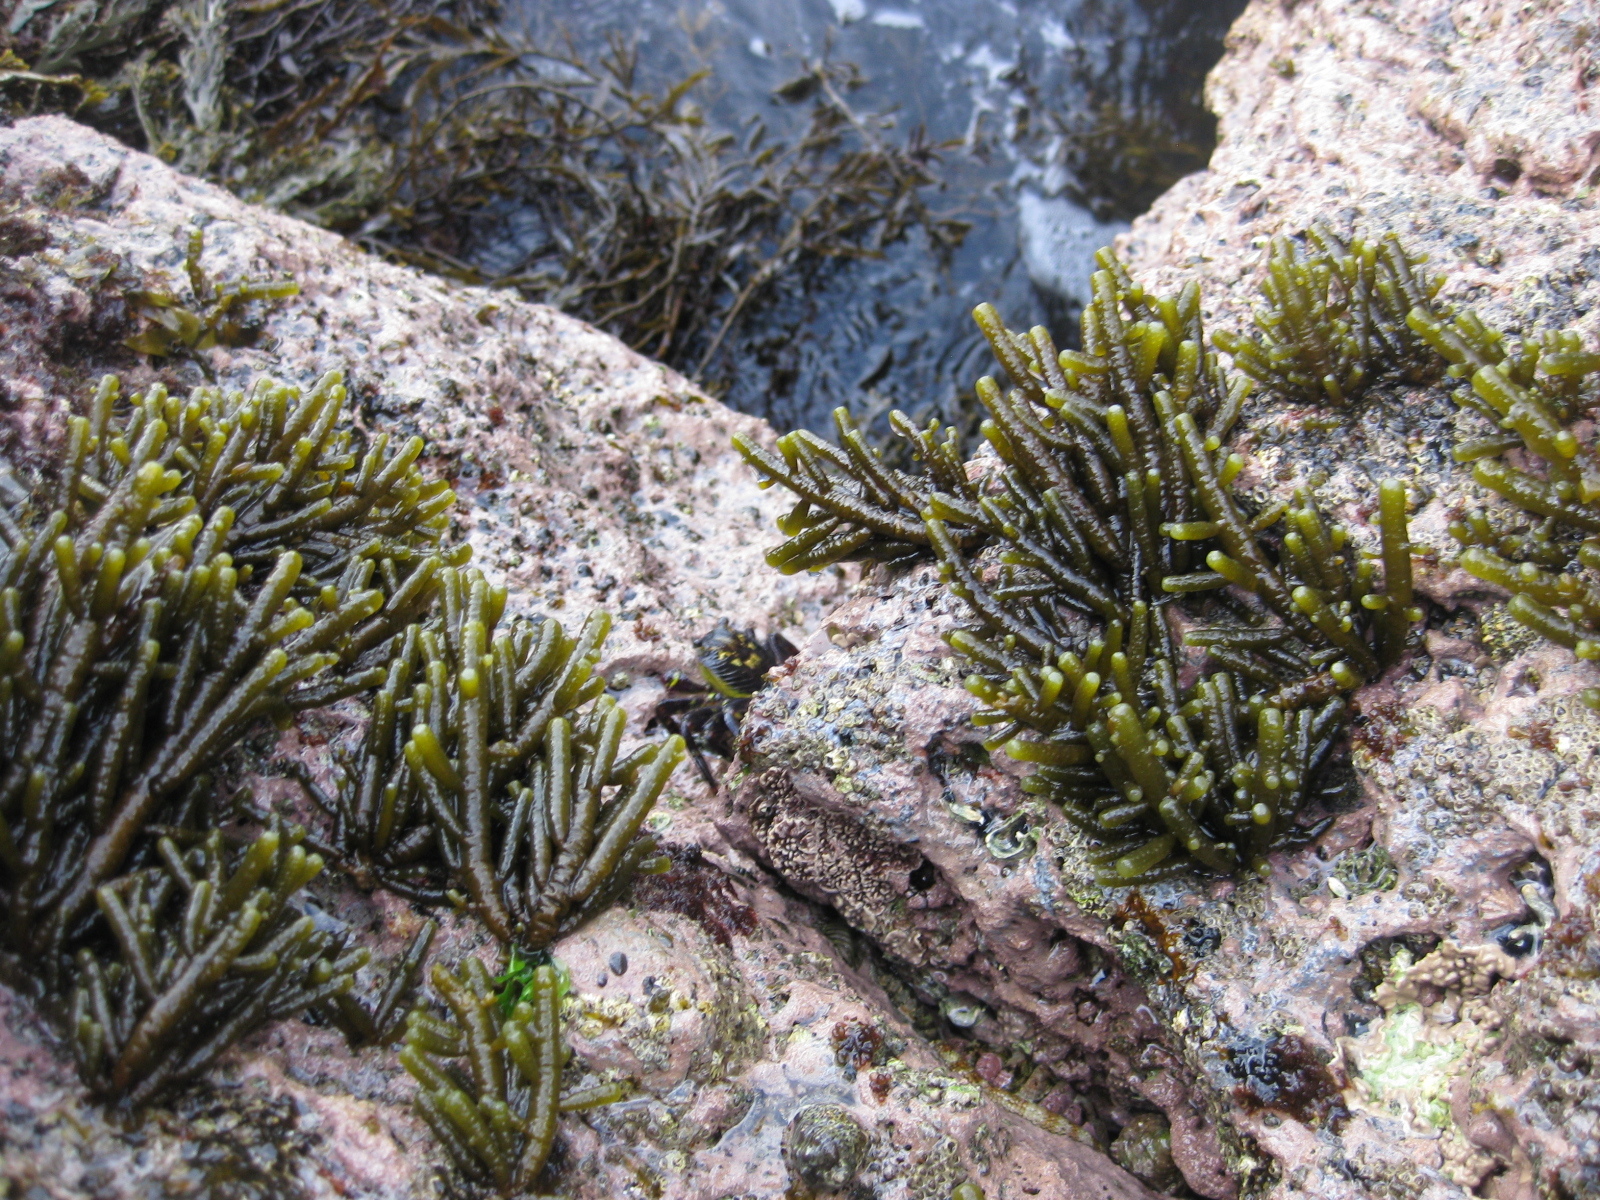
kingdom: Chromista
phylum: Ochrophyta
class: Phaeophyceae
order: Scytothamnales
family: Splachnidiaceae
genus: Splachnidium
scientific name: Splachnidium rugosum
